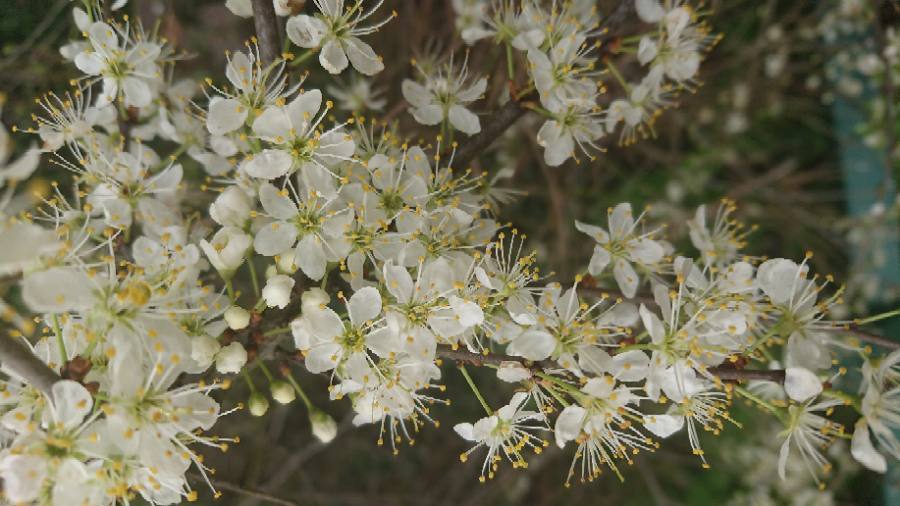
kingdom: Plantae
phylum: Tracheophyta
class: Magnoliopsida
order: Rosales
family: Rosaceae
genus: Prunus
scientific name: Prunus spinosa
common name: Blackthorn
